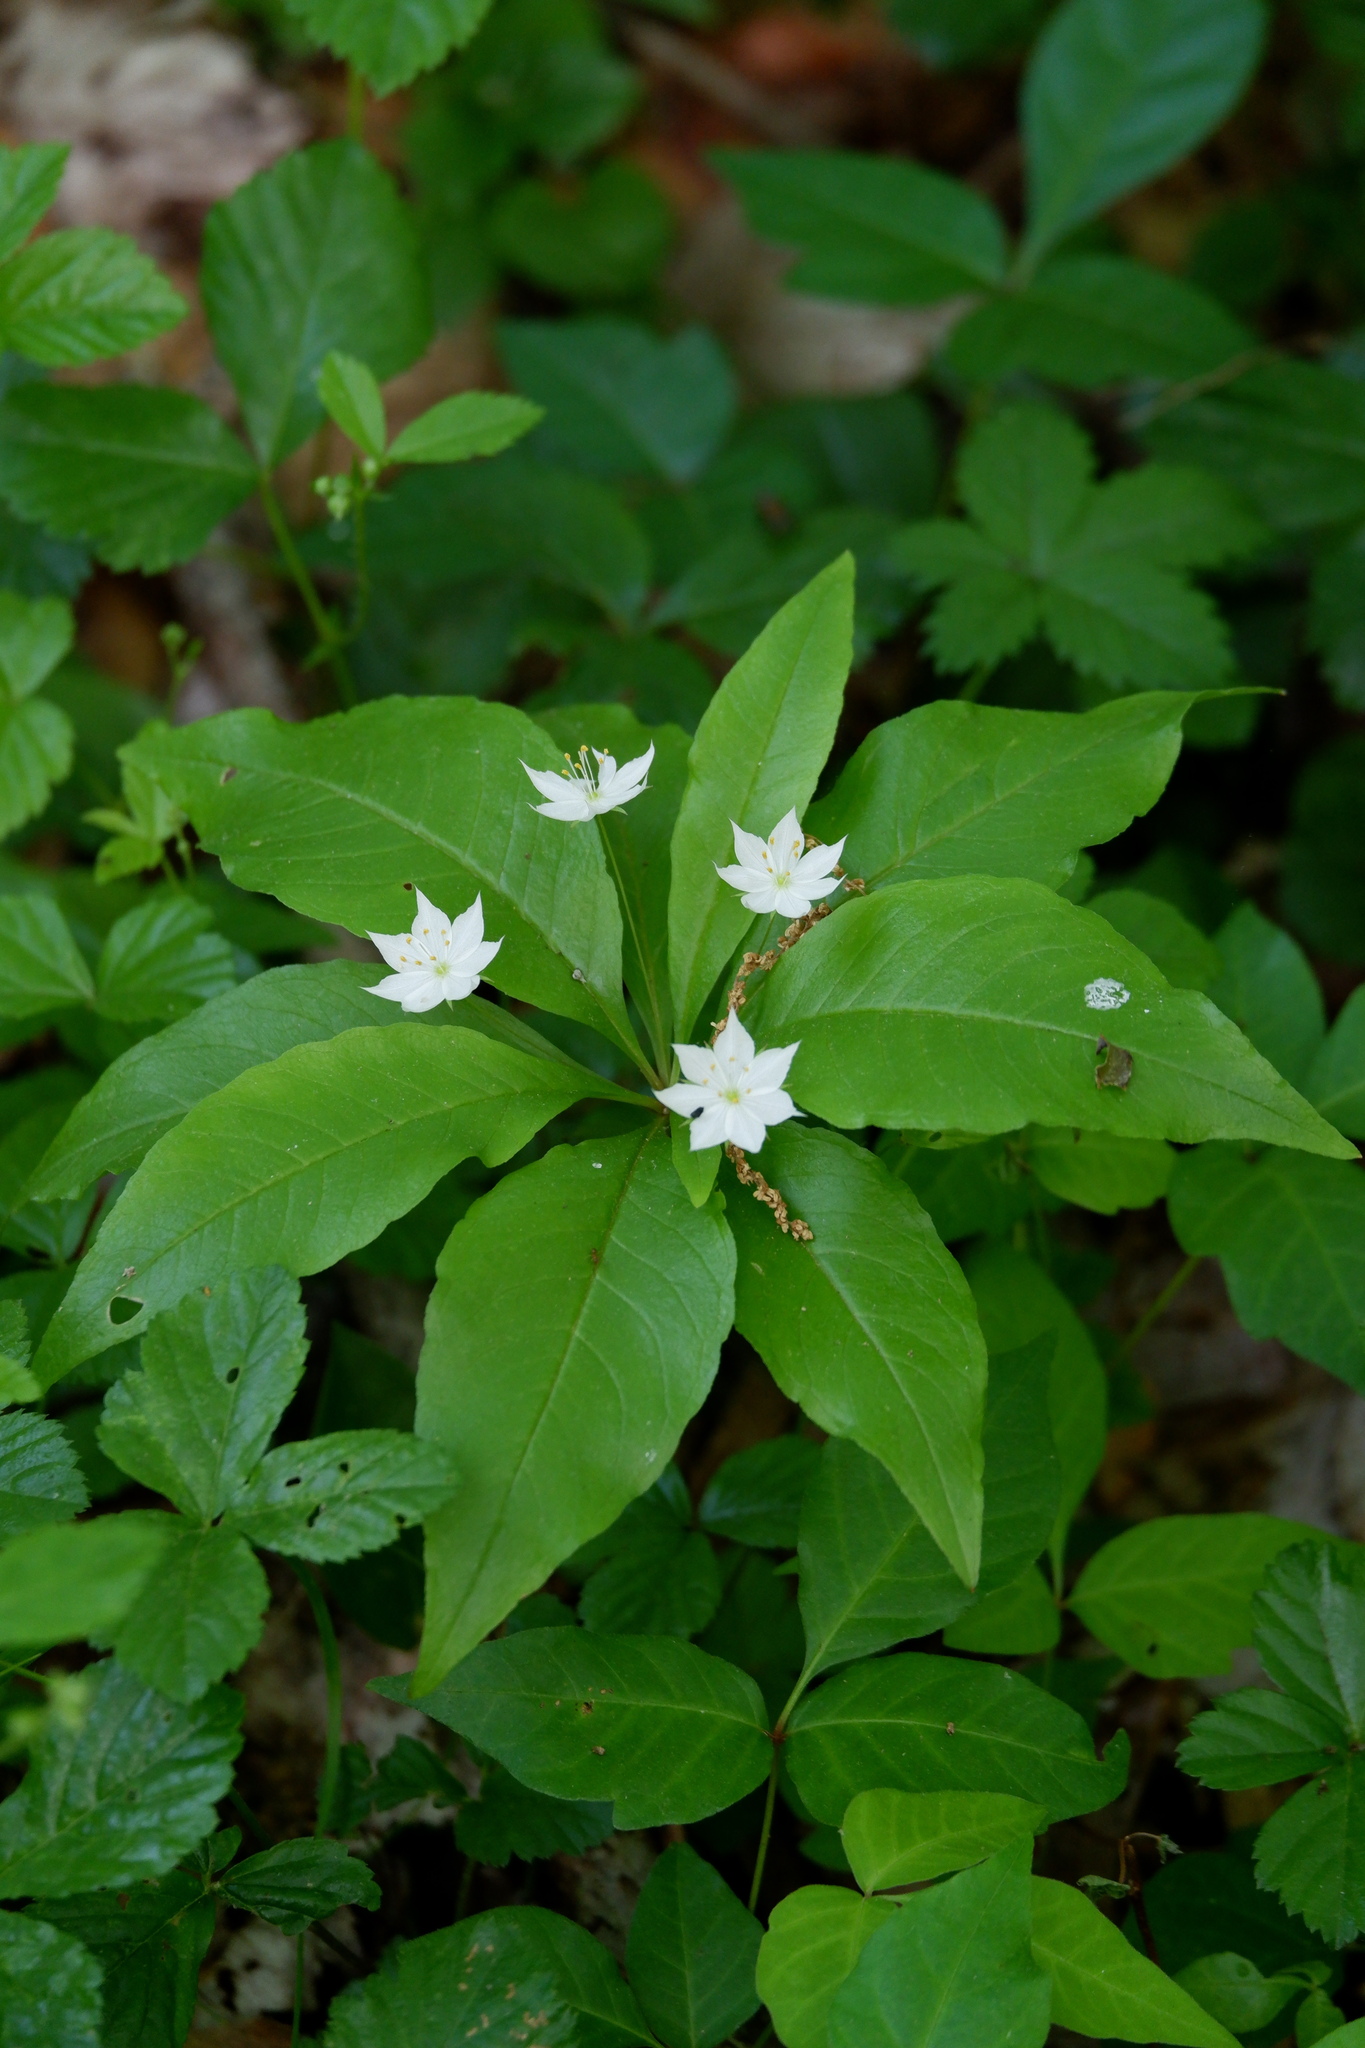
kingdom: Plantae
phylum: Tracheophyta
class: Magnoliopsida
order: Ericales
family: Primulaceae
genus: Lysimachia
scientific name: Lysimachia borealis
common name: American starflower
